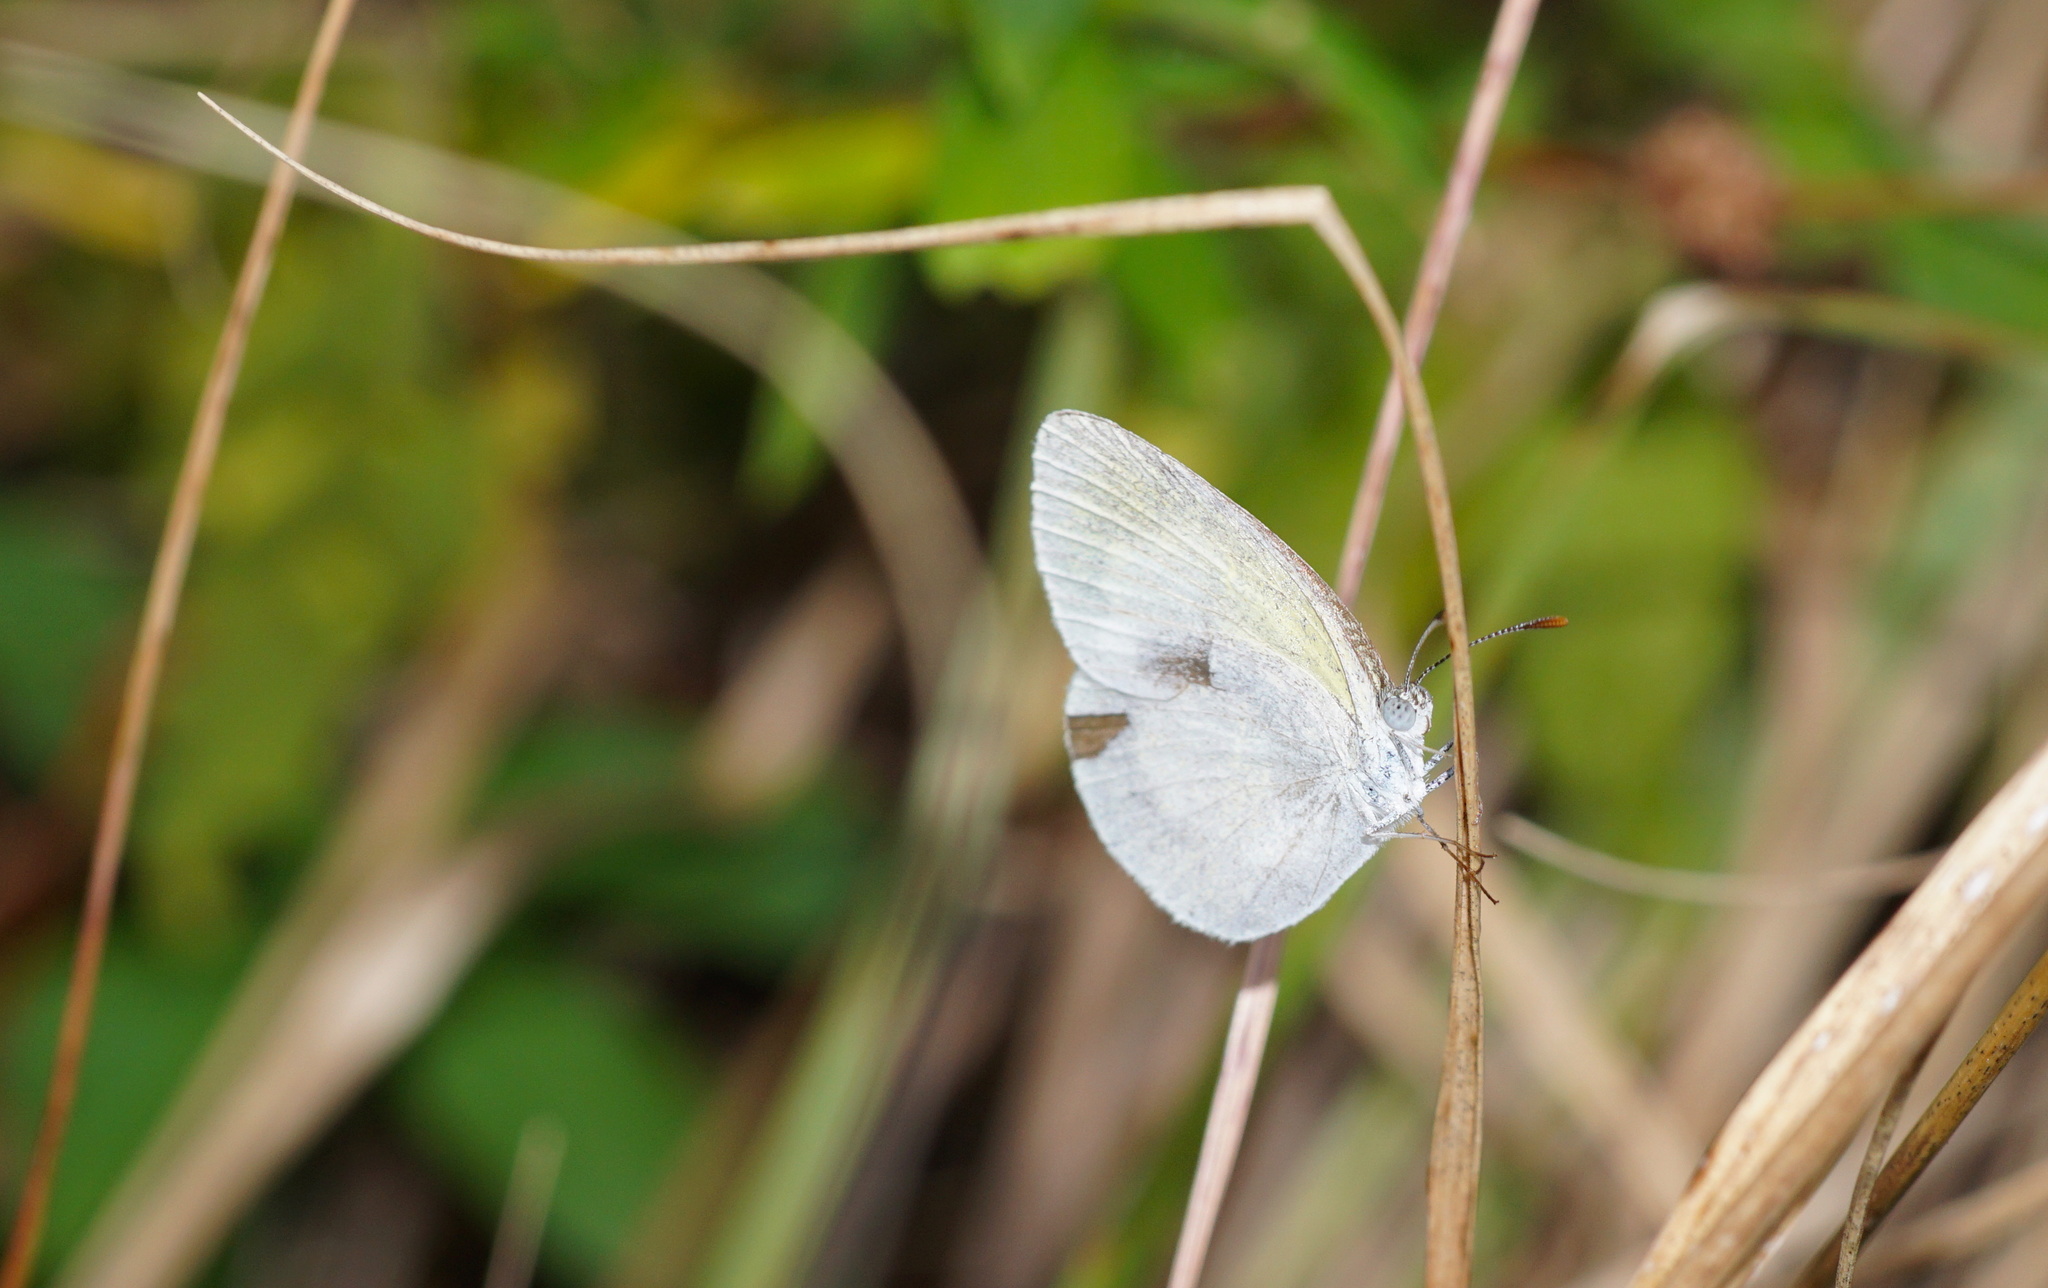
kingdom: Animalia
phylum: Arthropoda
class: Insecta
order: Lepidoptera
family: Pieridae
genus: Eurema
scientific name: Eurema daira
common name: Barred sulphur
